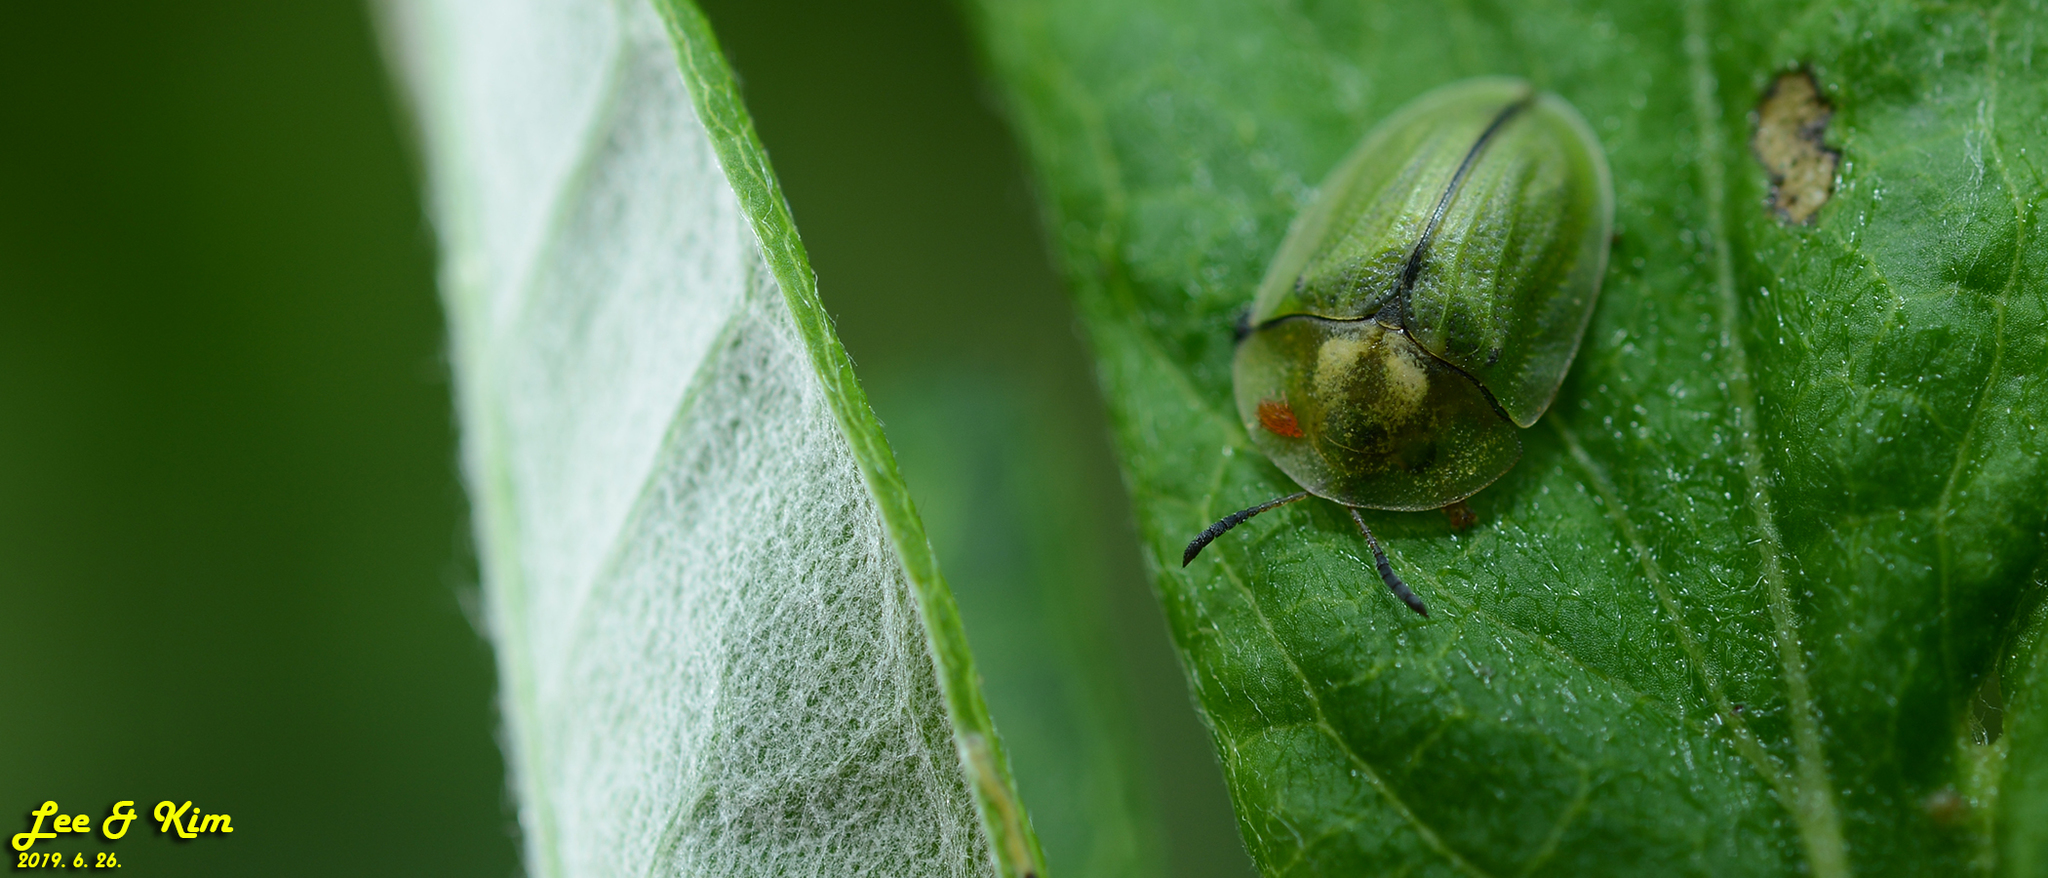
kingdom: Animalia
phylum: Arthropoda
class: Insecta
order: Coleoptera
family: Chrysomelidae
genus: Cassida
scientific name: Cassida mandli
